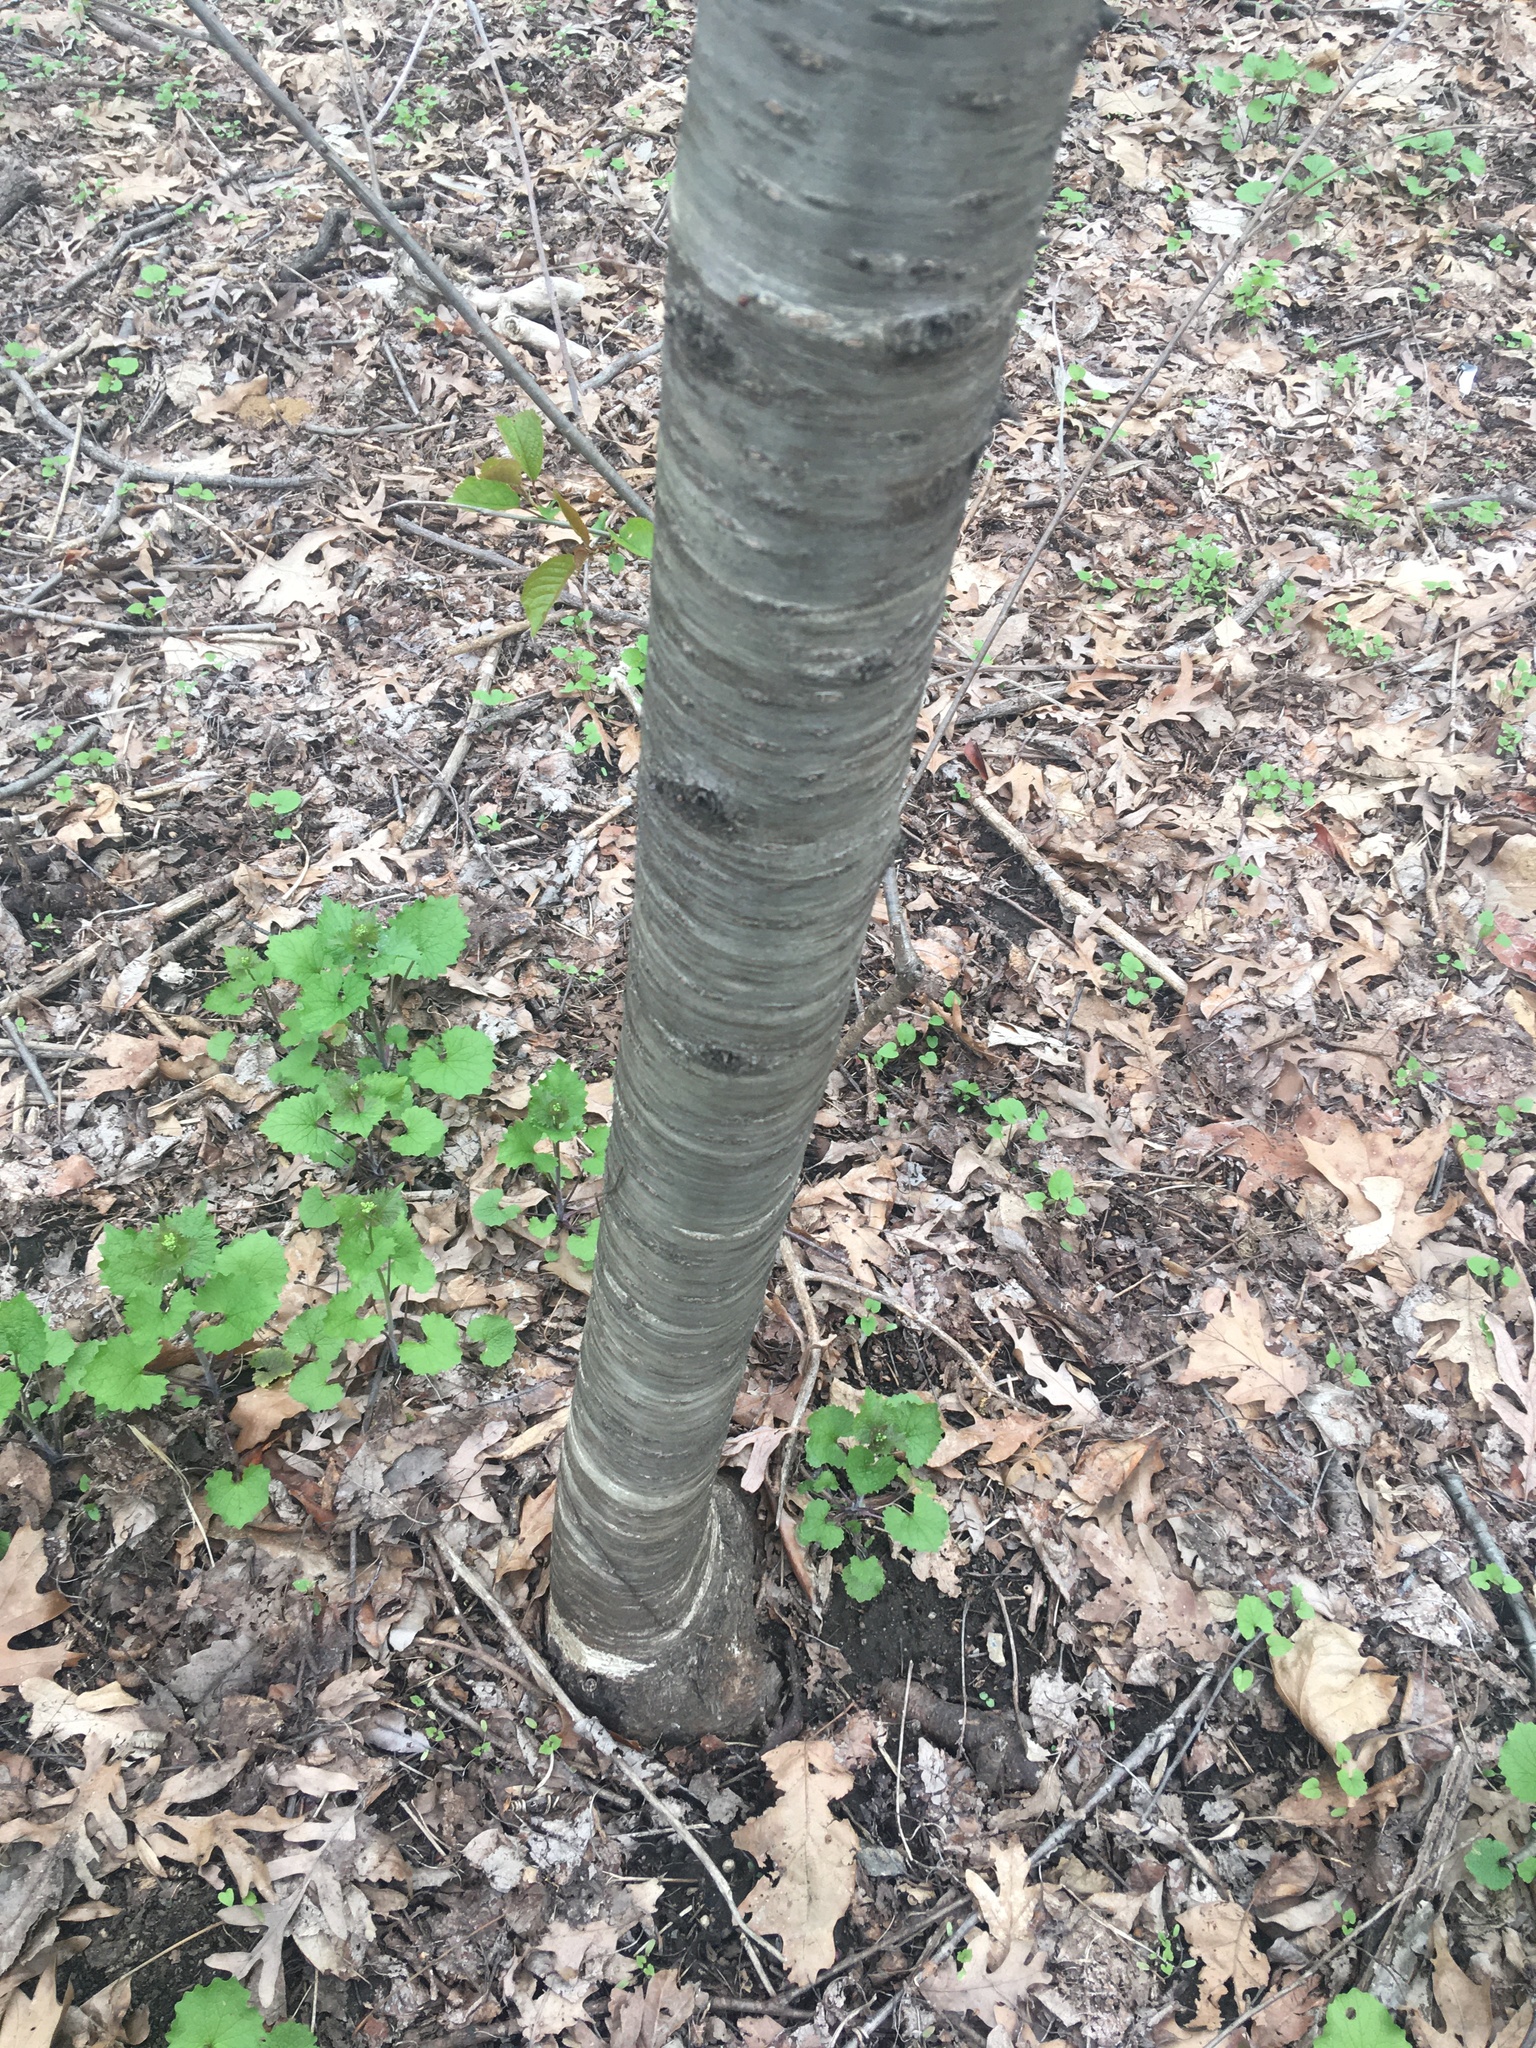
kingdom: Plantae
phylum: Tracheophyta
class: Magnoliopsida
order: Rosales
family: Rosaceae
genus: Prunus
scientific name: Prunus avium
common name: Sweet cherry
